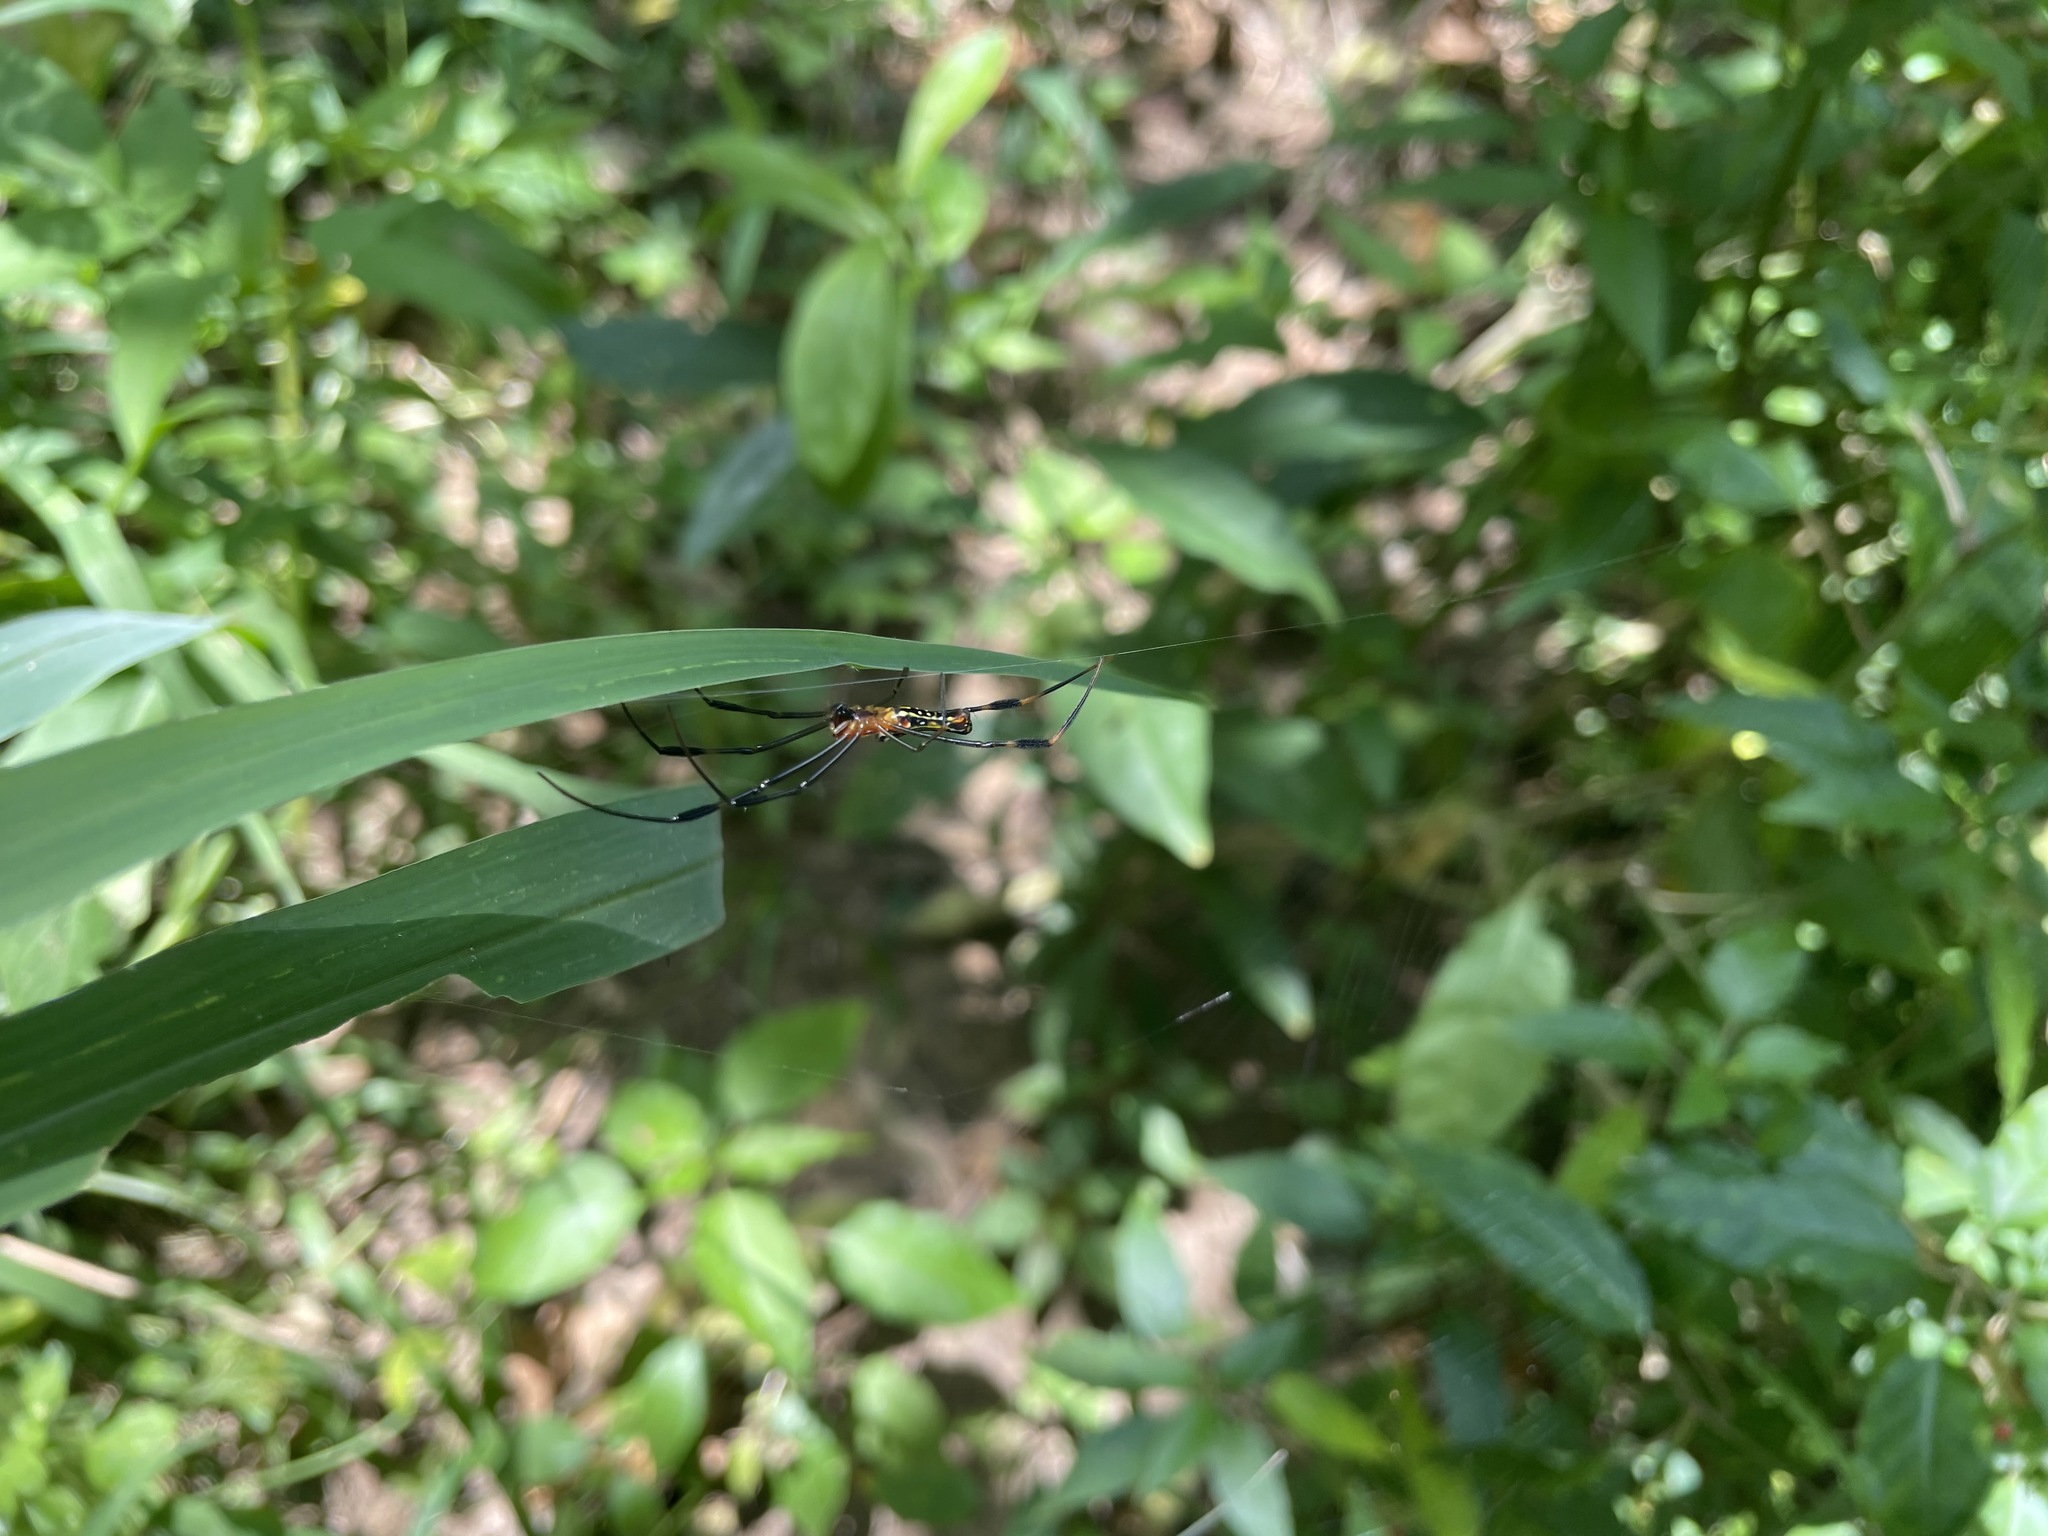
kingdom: Animalia
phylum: Arthropoda
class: Arachnida
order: Araneae
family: Araneidae
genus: Nephila
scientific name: Nephila pilipes
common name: Giant golden orb weaver
